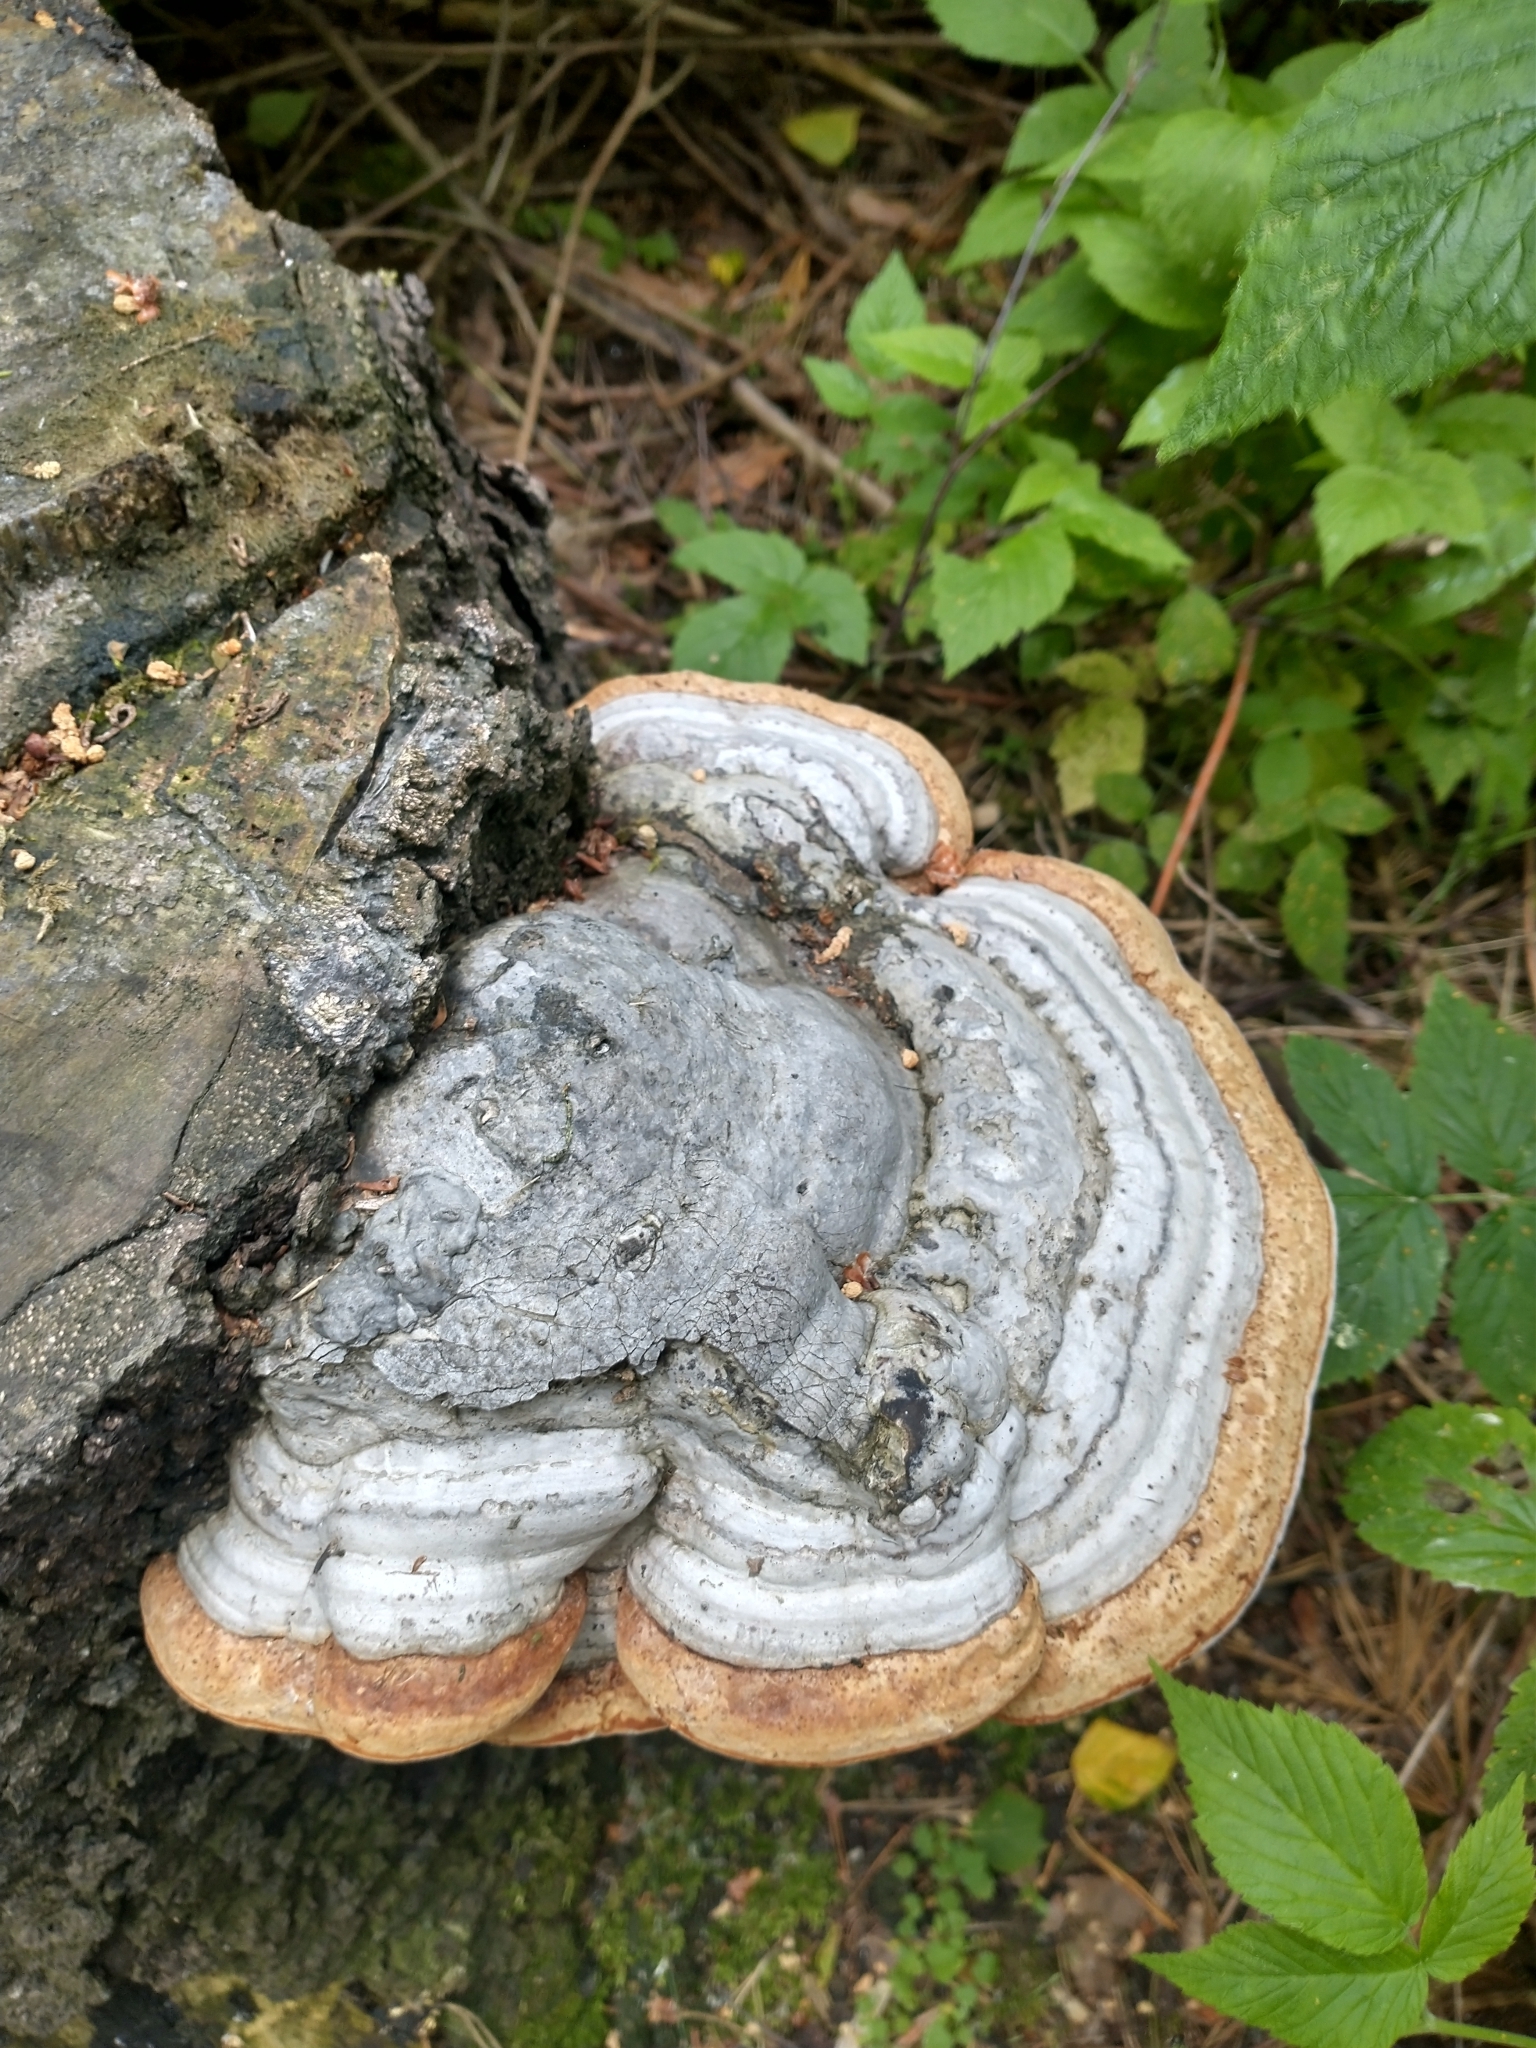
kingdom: Fungi
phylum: Basidiomycota
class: Agaricomycetes
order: Polyporales
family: Polyporaceae
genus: Fomes
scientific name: Fomes fomentarius
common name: Hoof fungus
